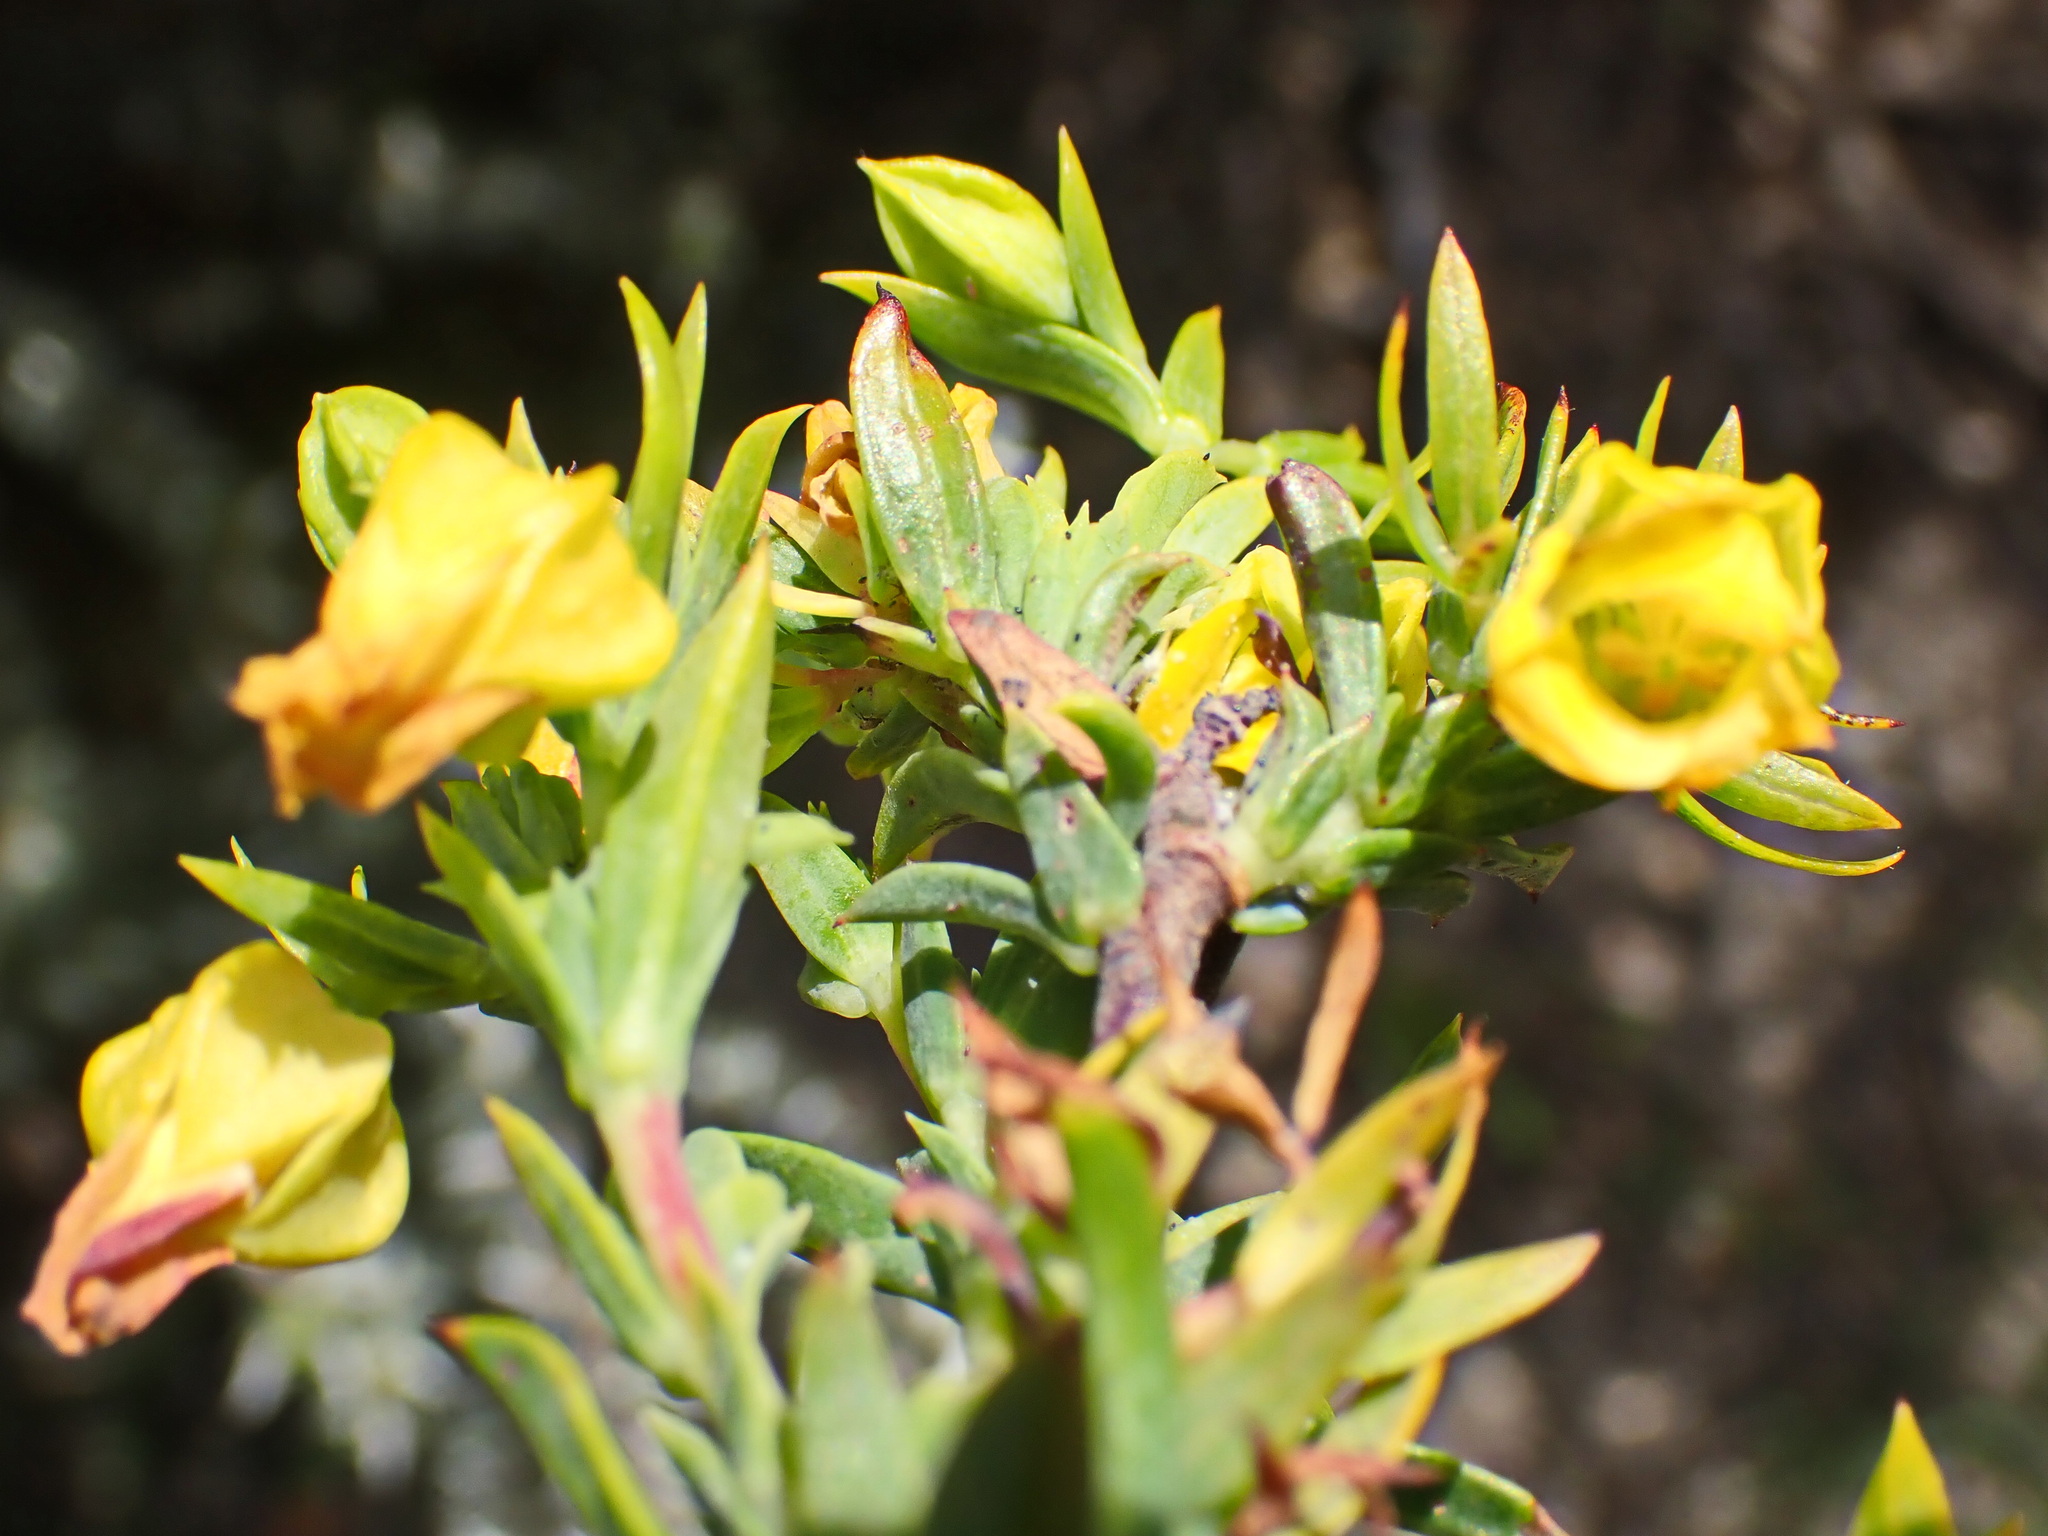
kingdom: Plantae
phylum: Tracheophyta
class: Magnoliopsida
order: Malvales
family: Malvaceae
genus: Hermannia
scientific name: Hermannia
